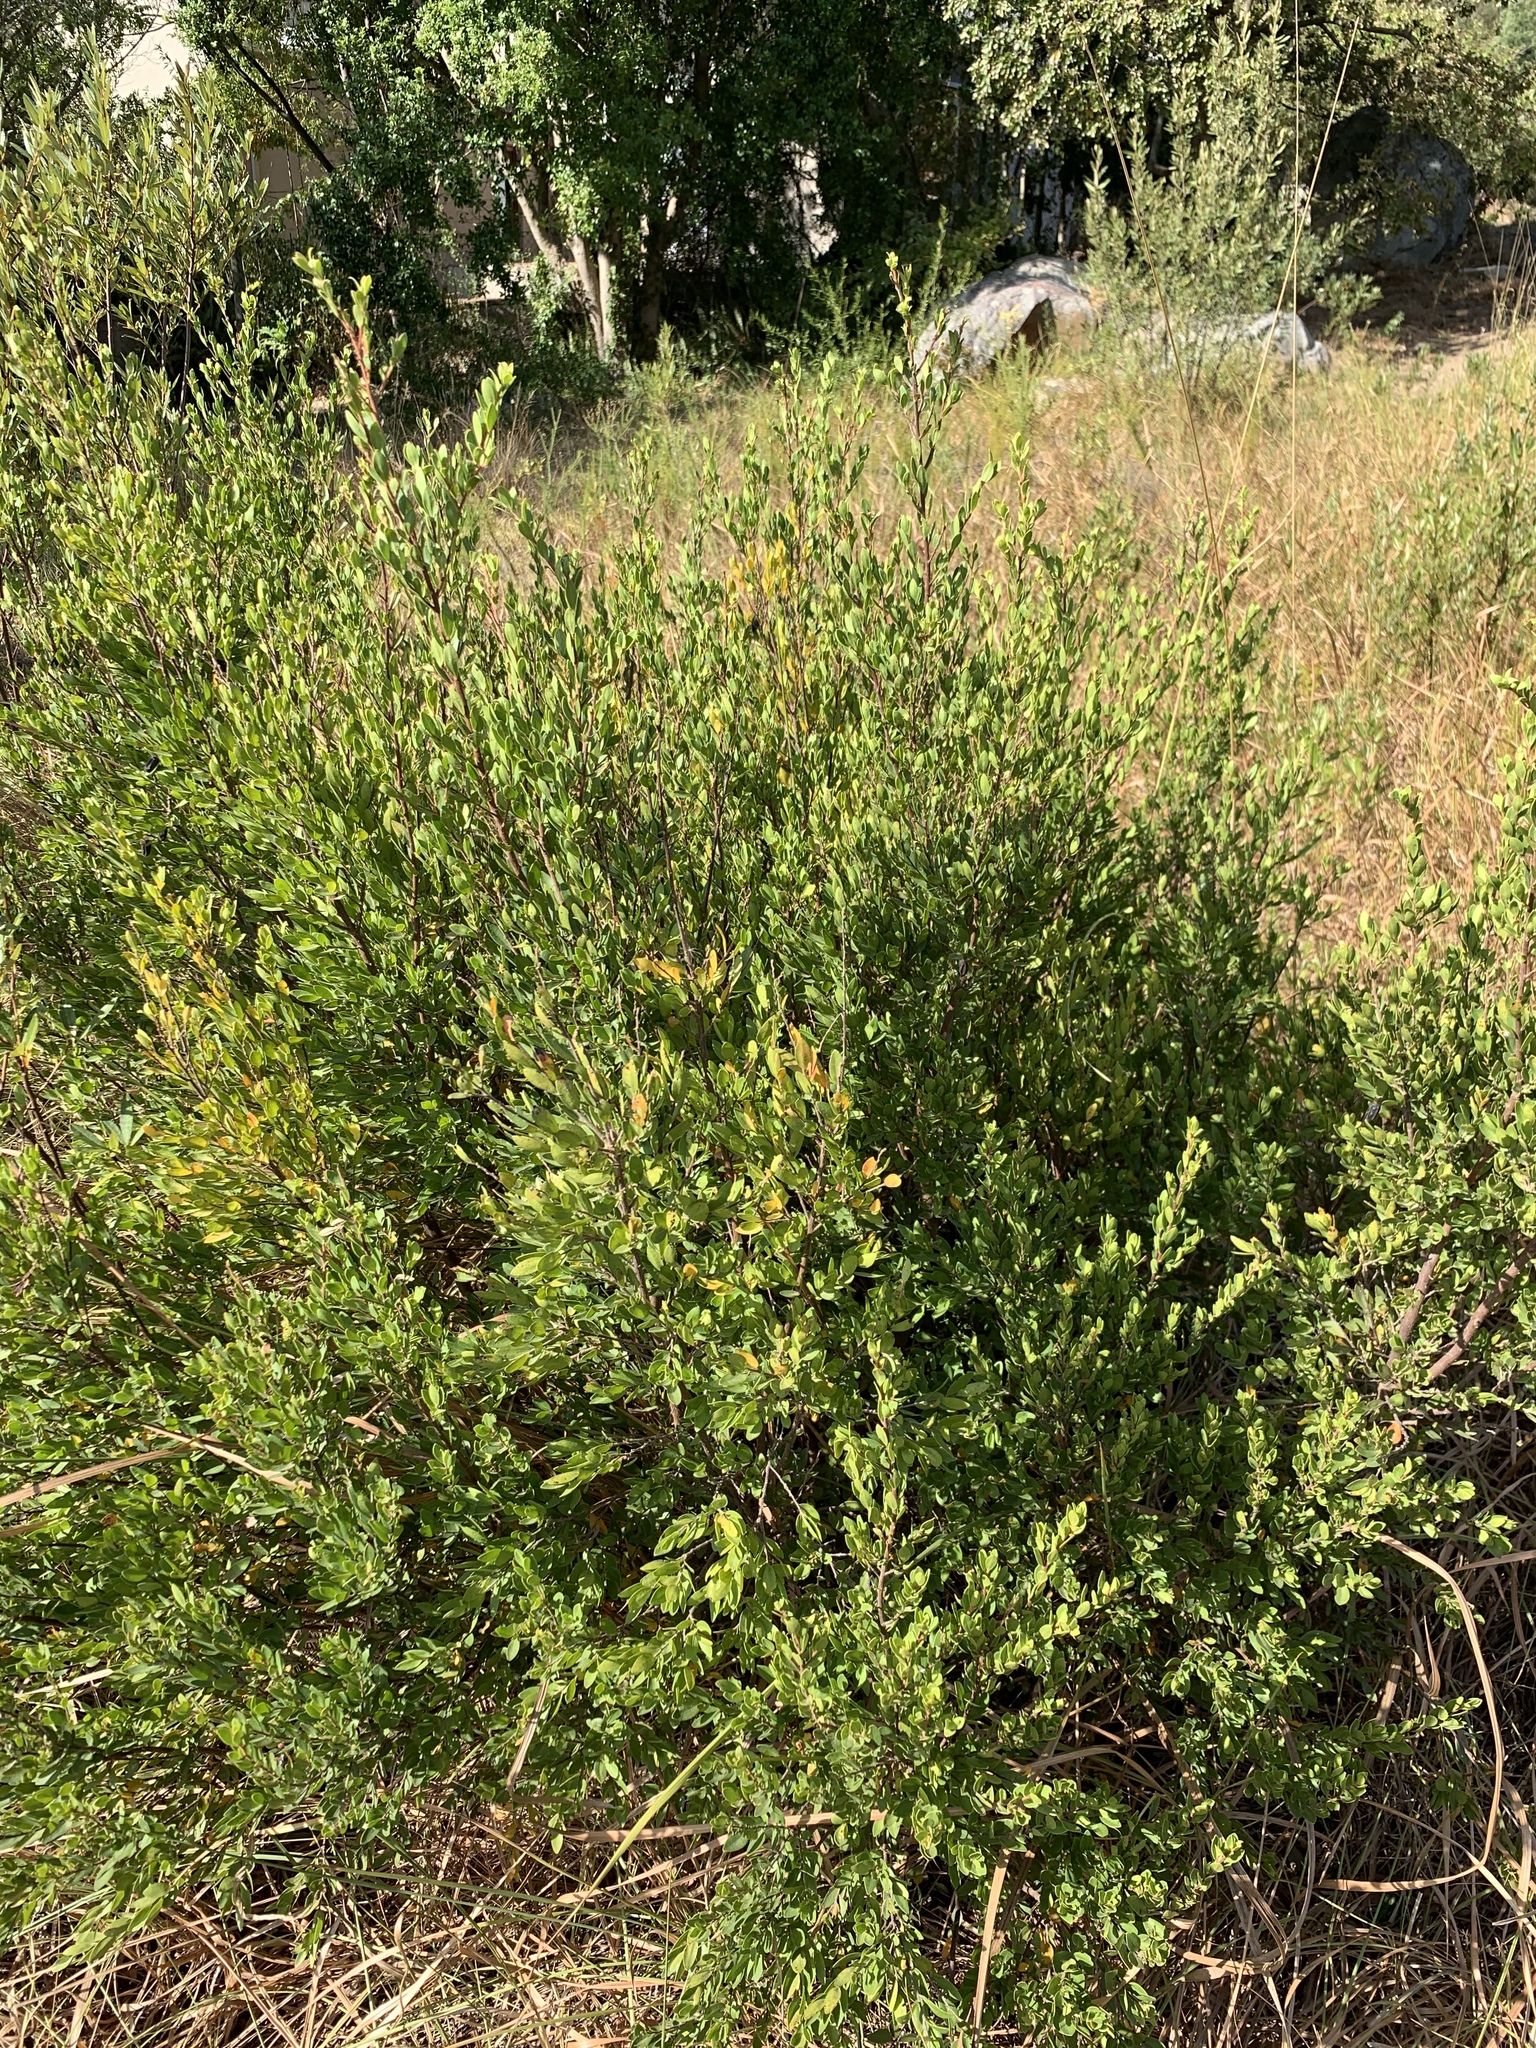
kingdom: Plantae
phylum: Tracheophyta
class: Magnoliopsida
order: Ericales
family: Ebenaceae
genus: Diospyros
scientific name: Diospyros glabra
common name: Fynbos star apple
